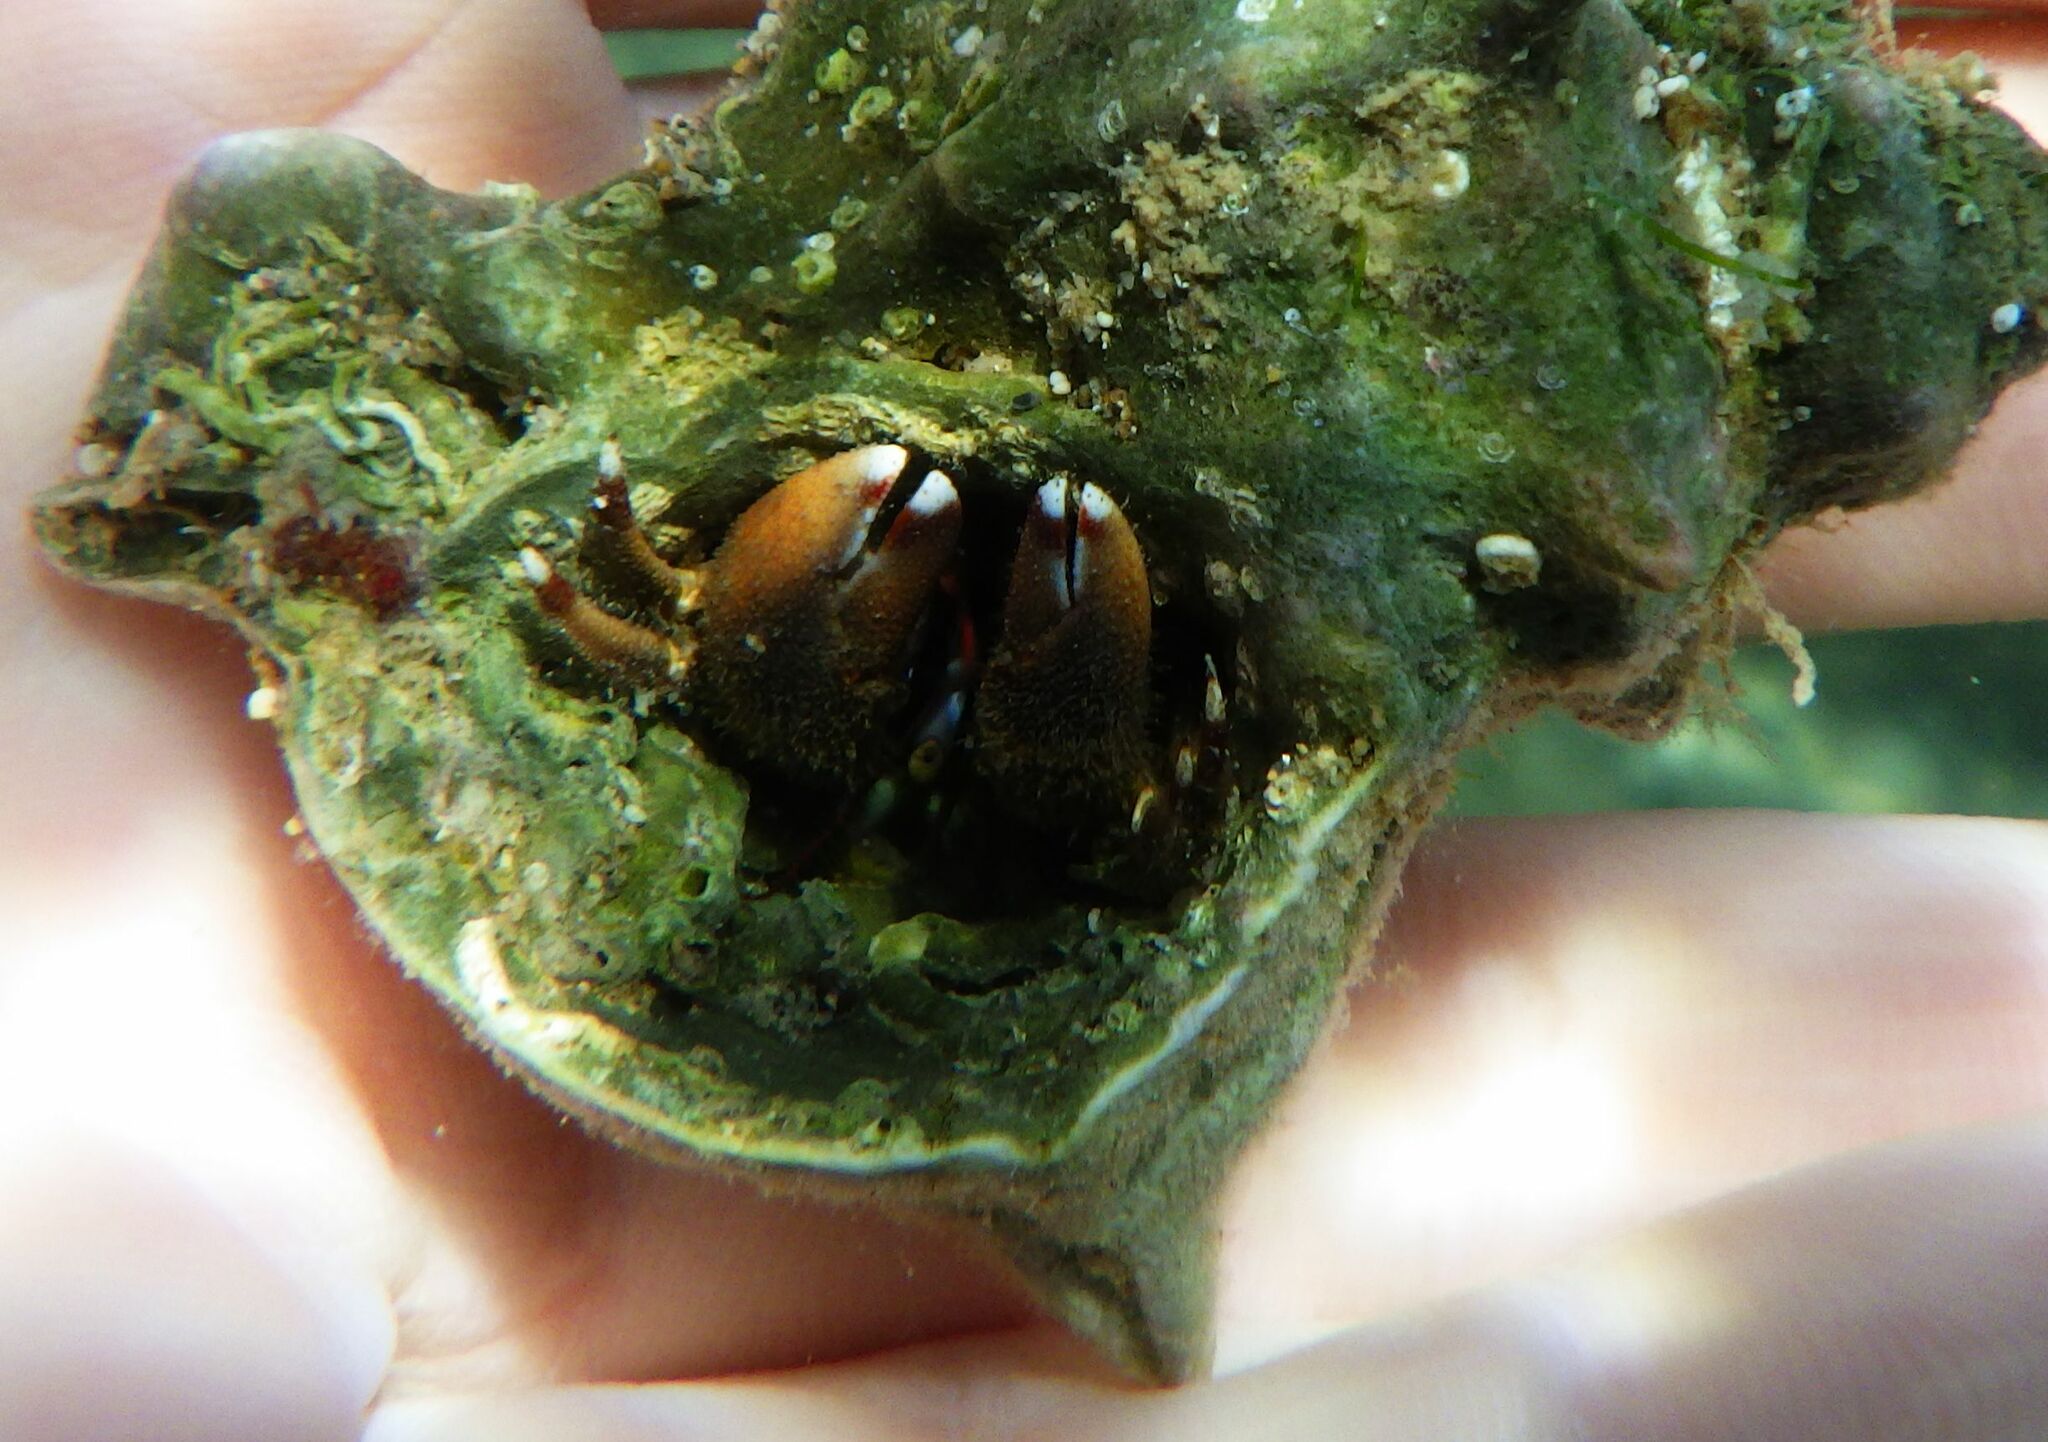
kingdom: Animalia
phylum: Arthropoda
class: Malacostraca
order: Decapoda
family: Diogenidae
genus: Paguristes
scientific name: Paguristes streaensis
